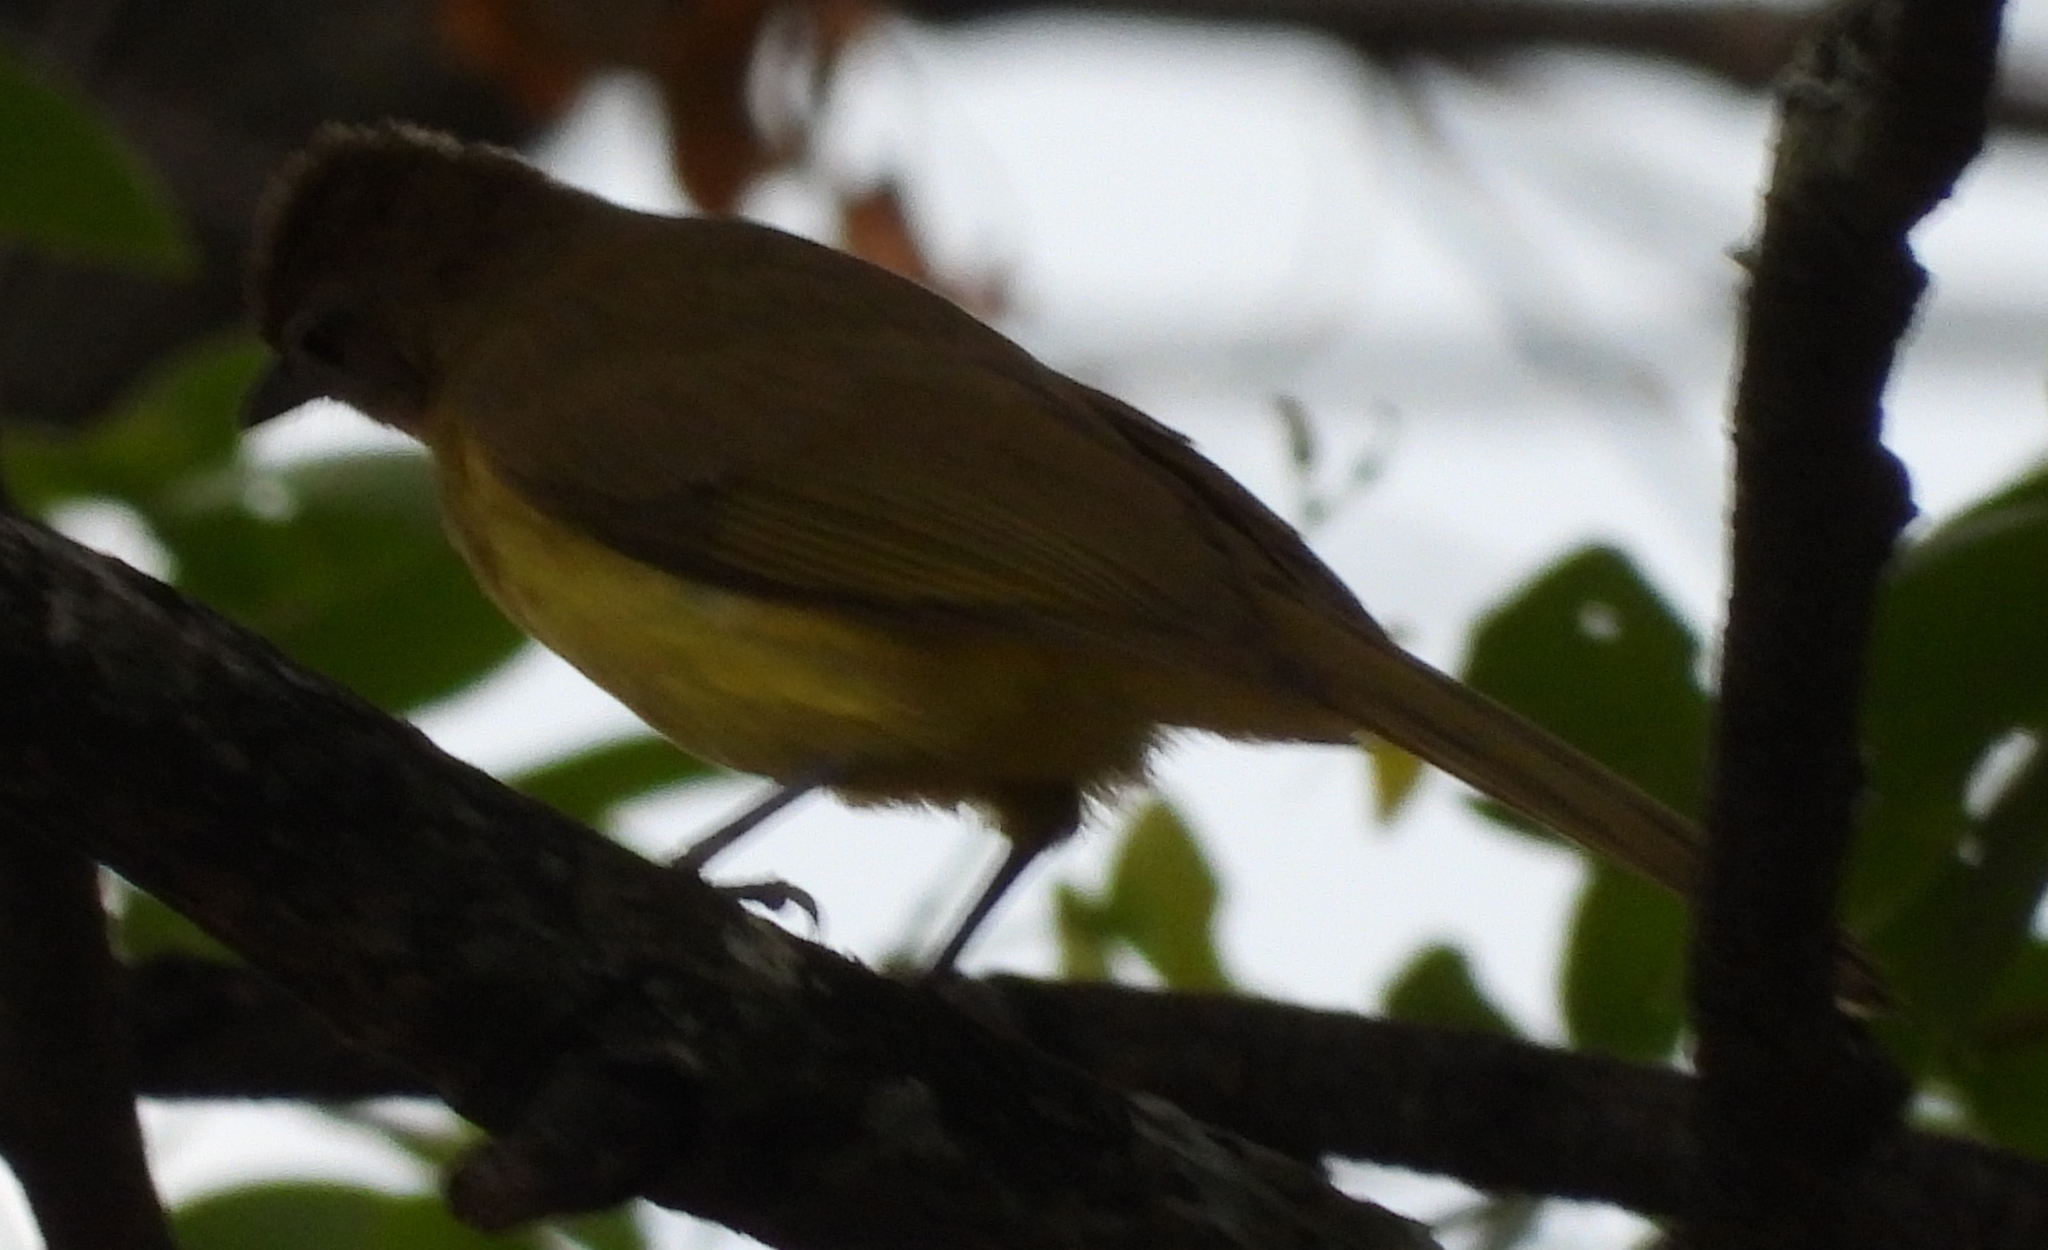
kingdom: Animalia
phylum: Chordata
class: Aves
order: Passeriformes
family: Pycnonotidae
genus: Chlorocichla
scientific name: Chlorocichla flaviventris
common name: Yellow-bellied greenbul
